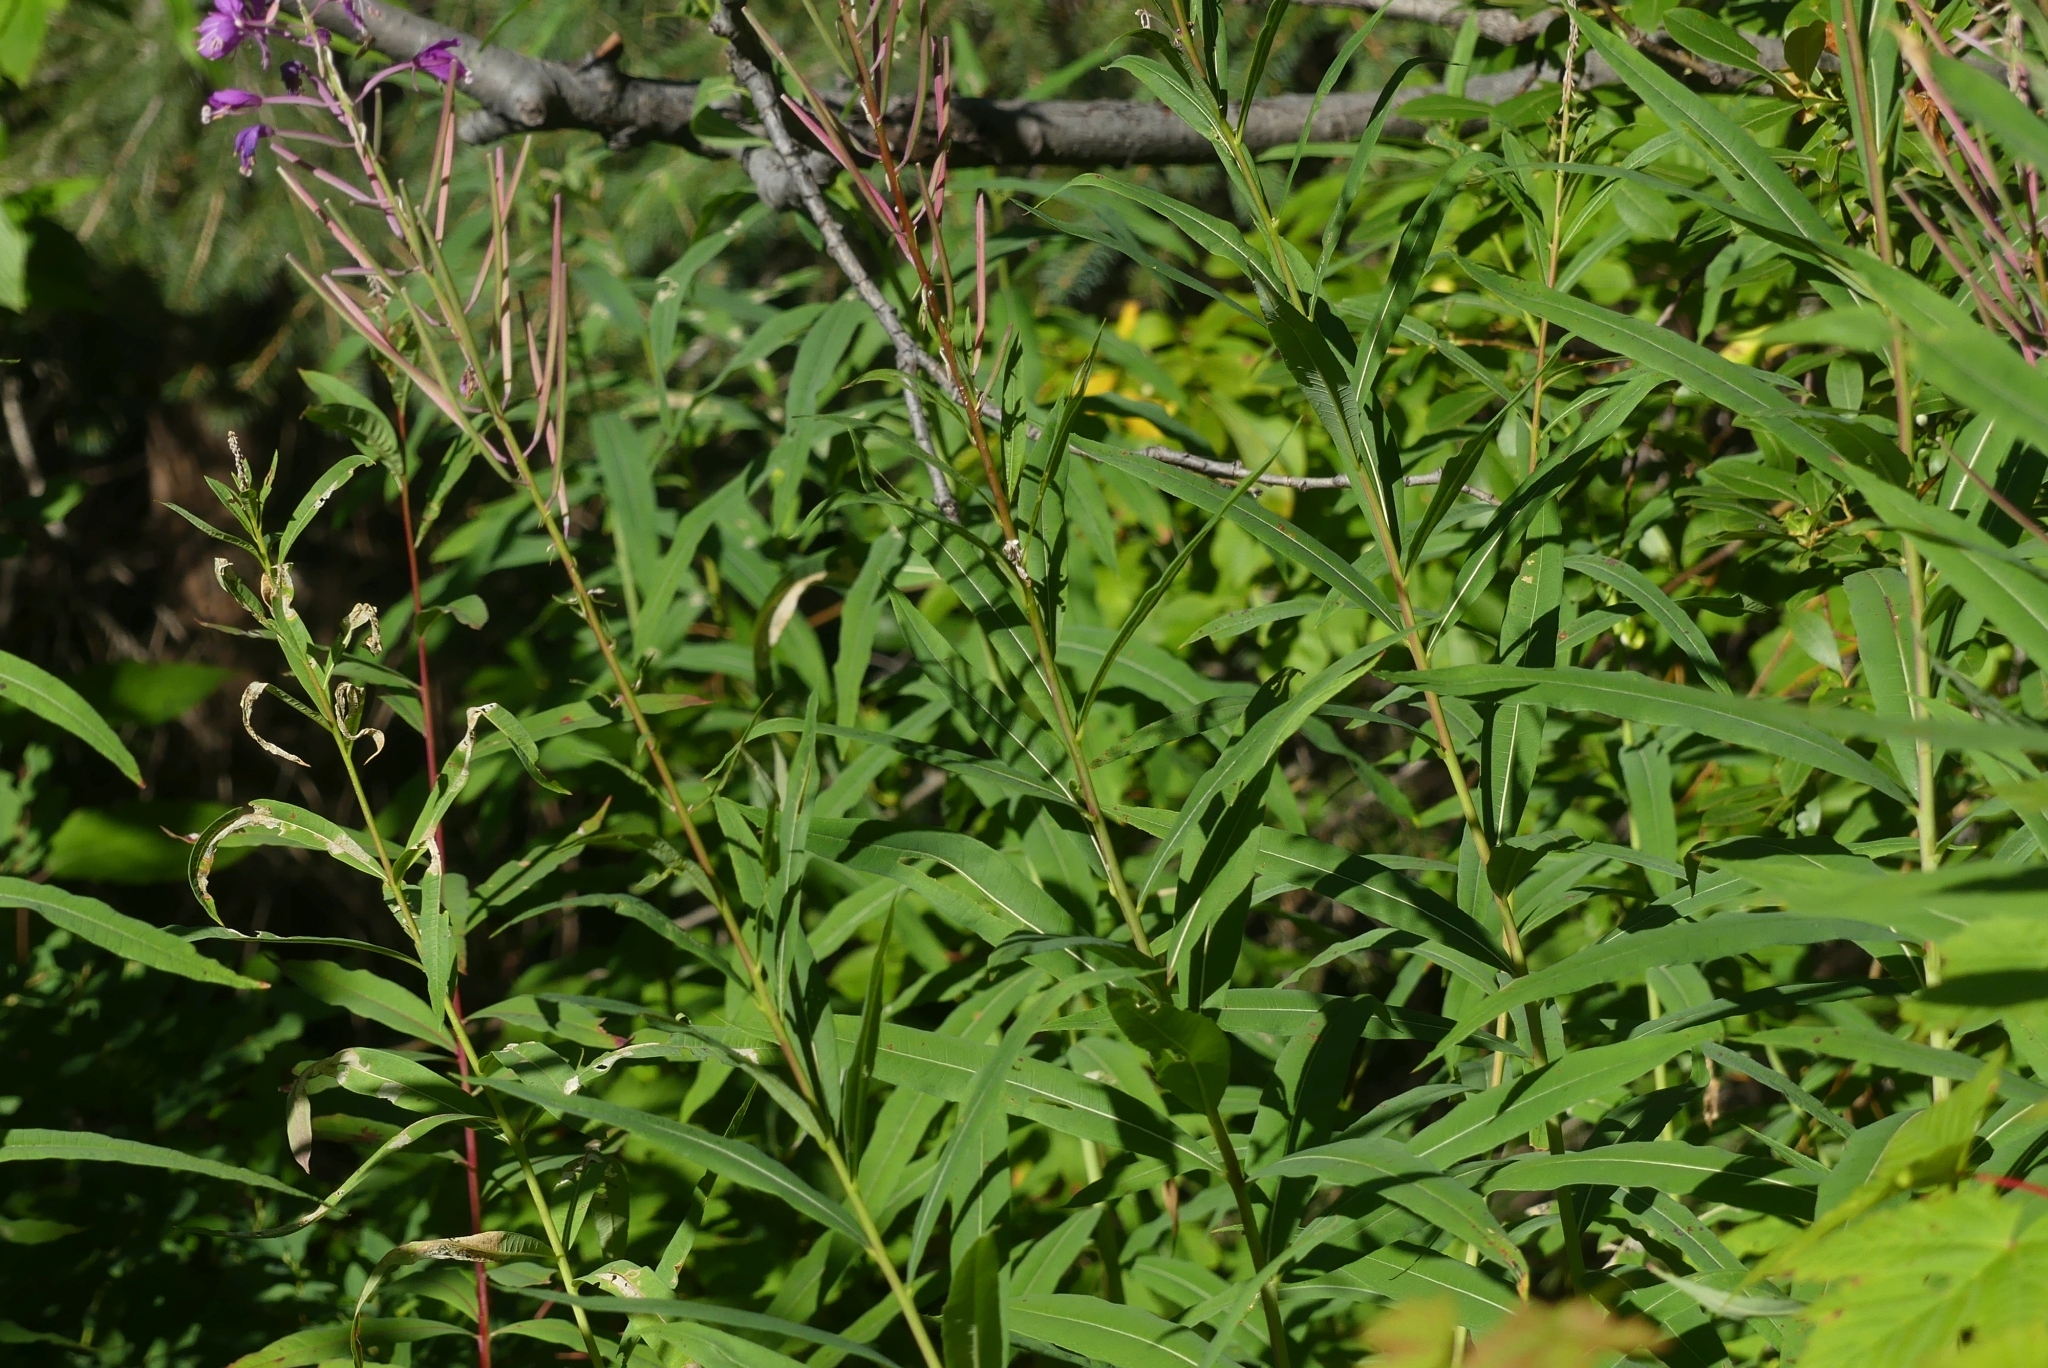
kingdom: Plantae
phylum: Tracheophyta
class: Magnoliopsida
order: Myrtales
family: Onagraceae
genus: Chamaenerion
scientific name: Chamaenerion angustifolium
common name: Fireweed
